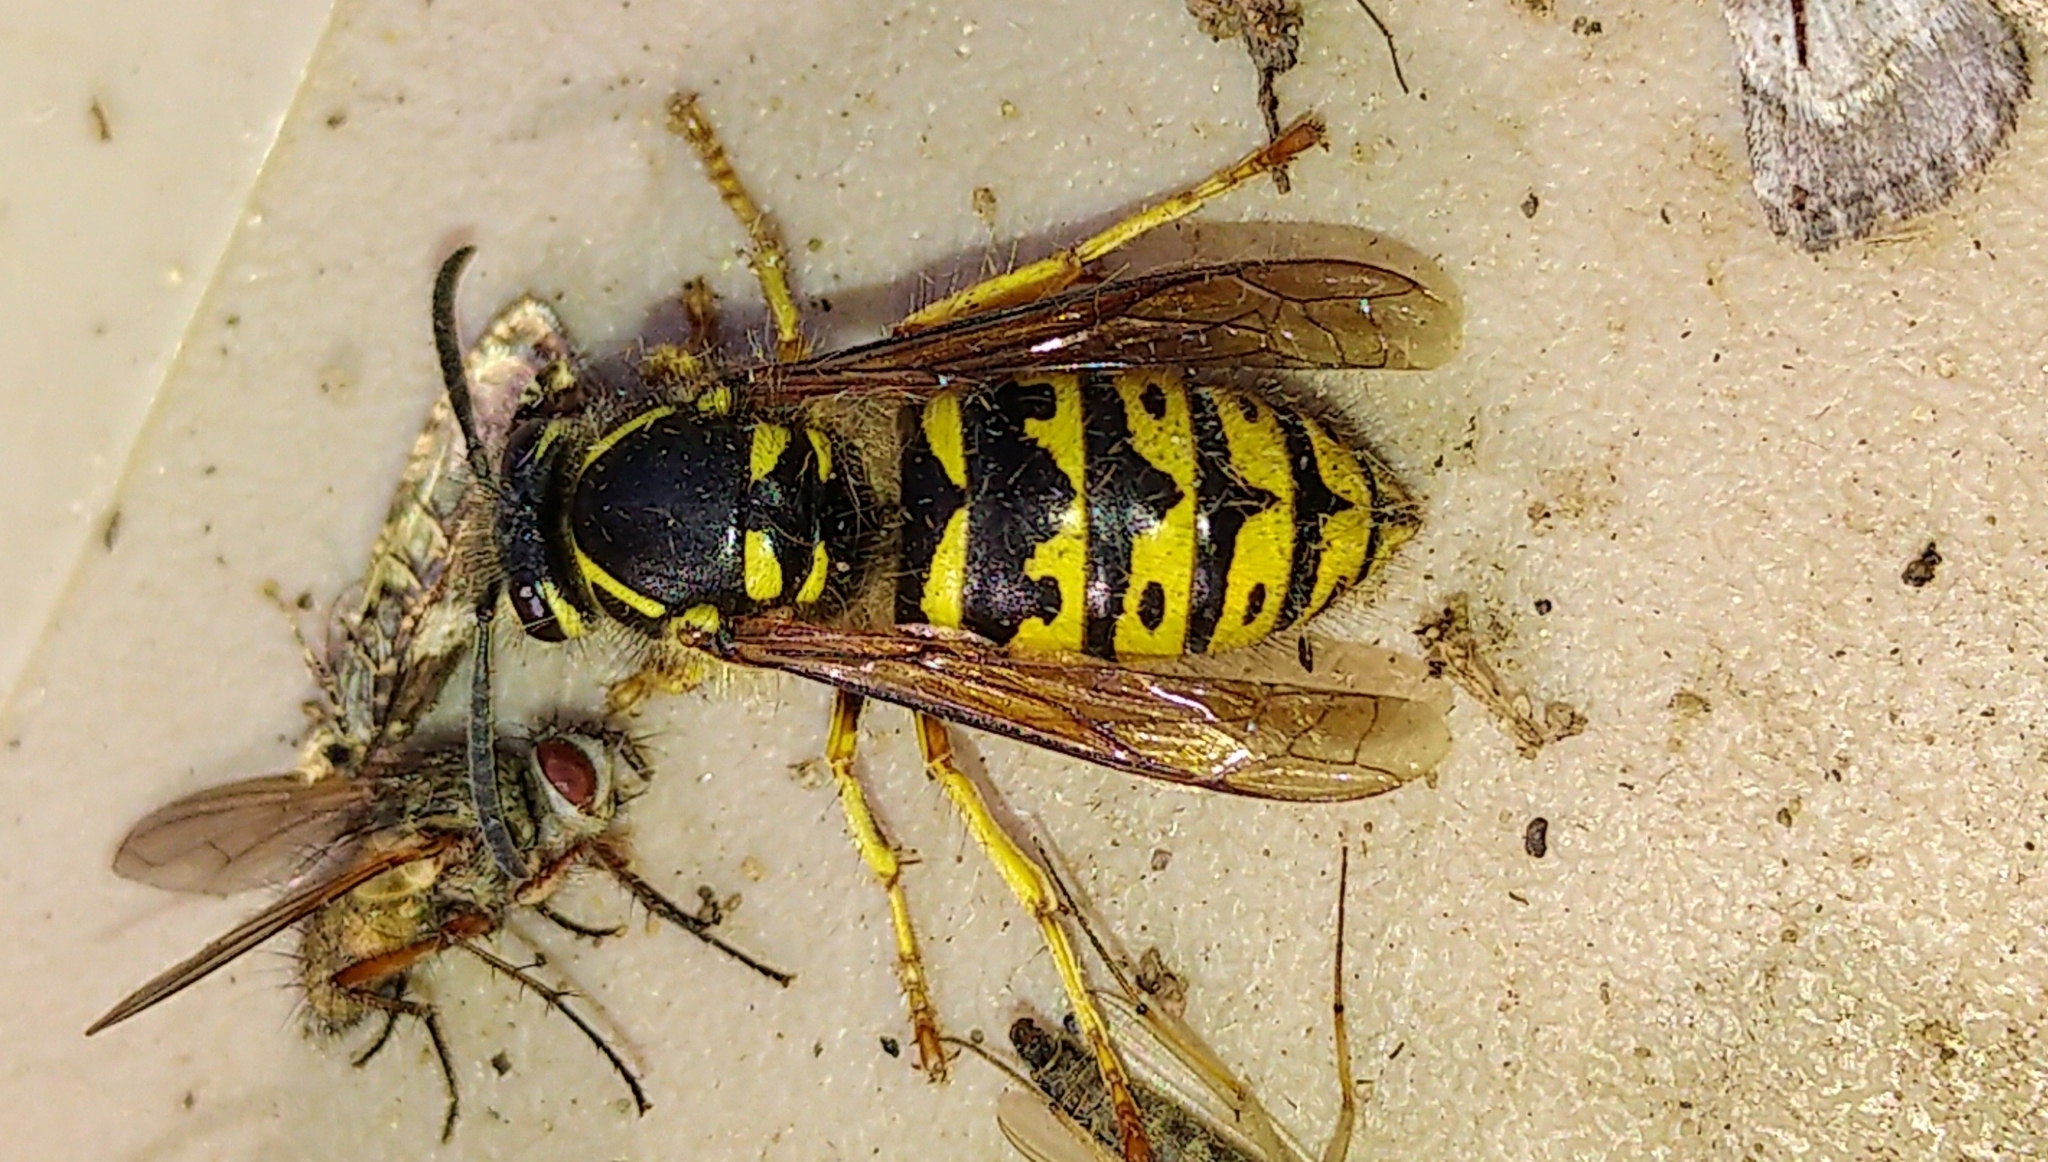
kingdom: Animalia
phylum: Arthropoda
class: Insecta
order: Hymenoptera
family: Vespidae
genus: Dolichovespula
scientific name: Dolichovespula arenaria
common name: Aerial yellowjacket
